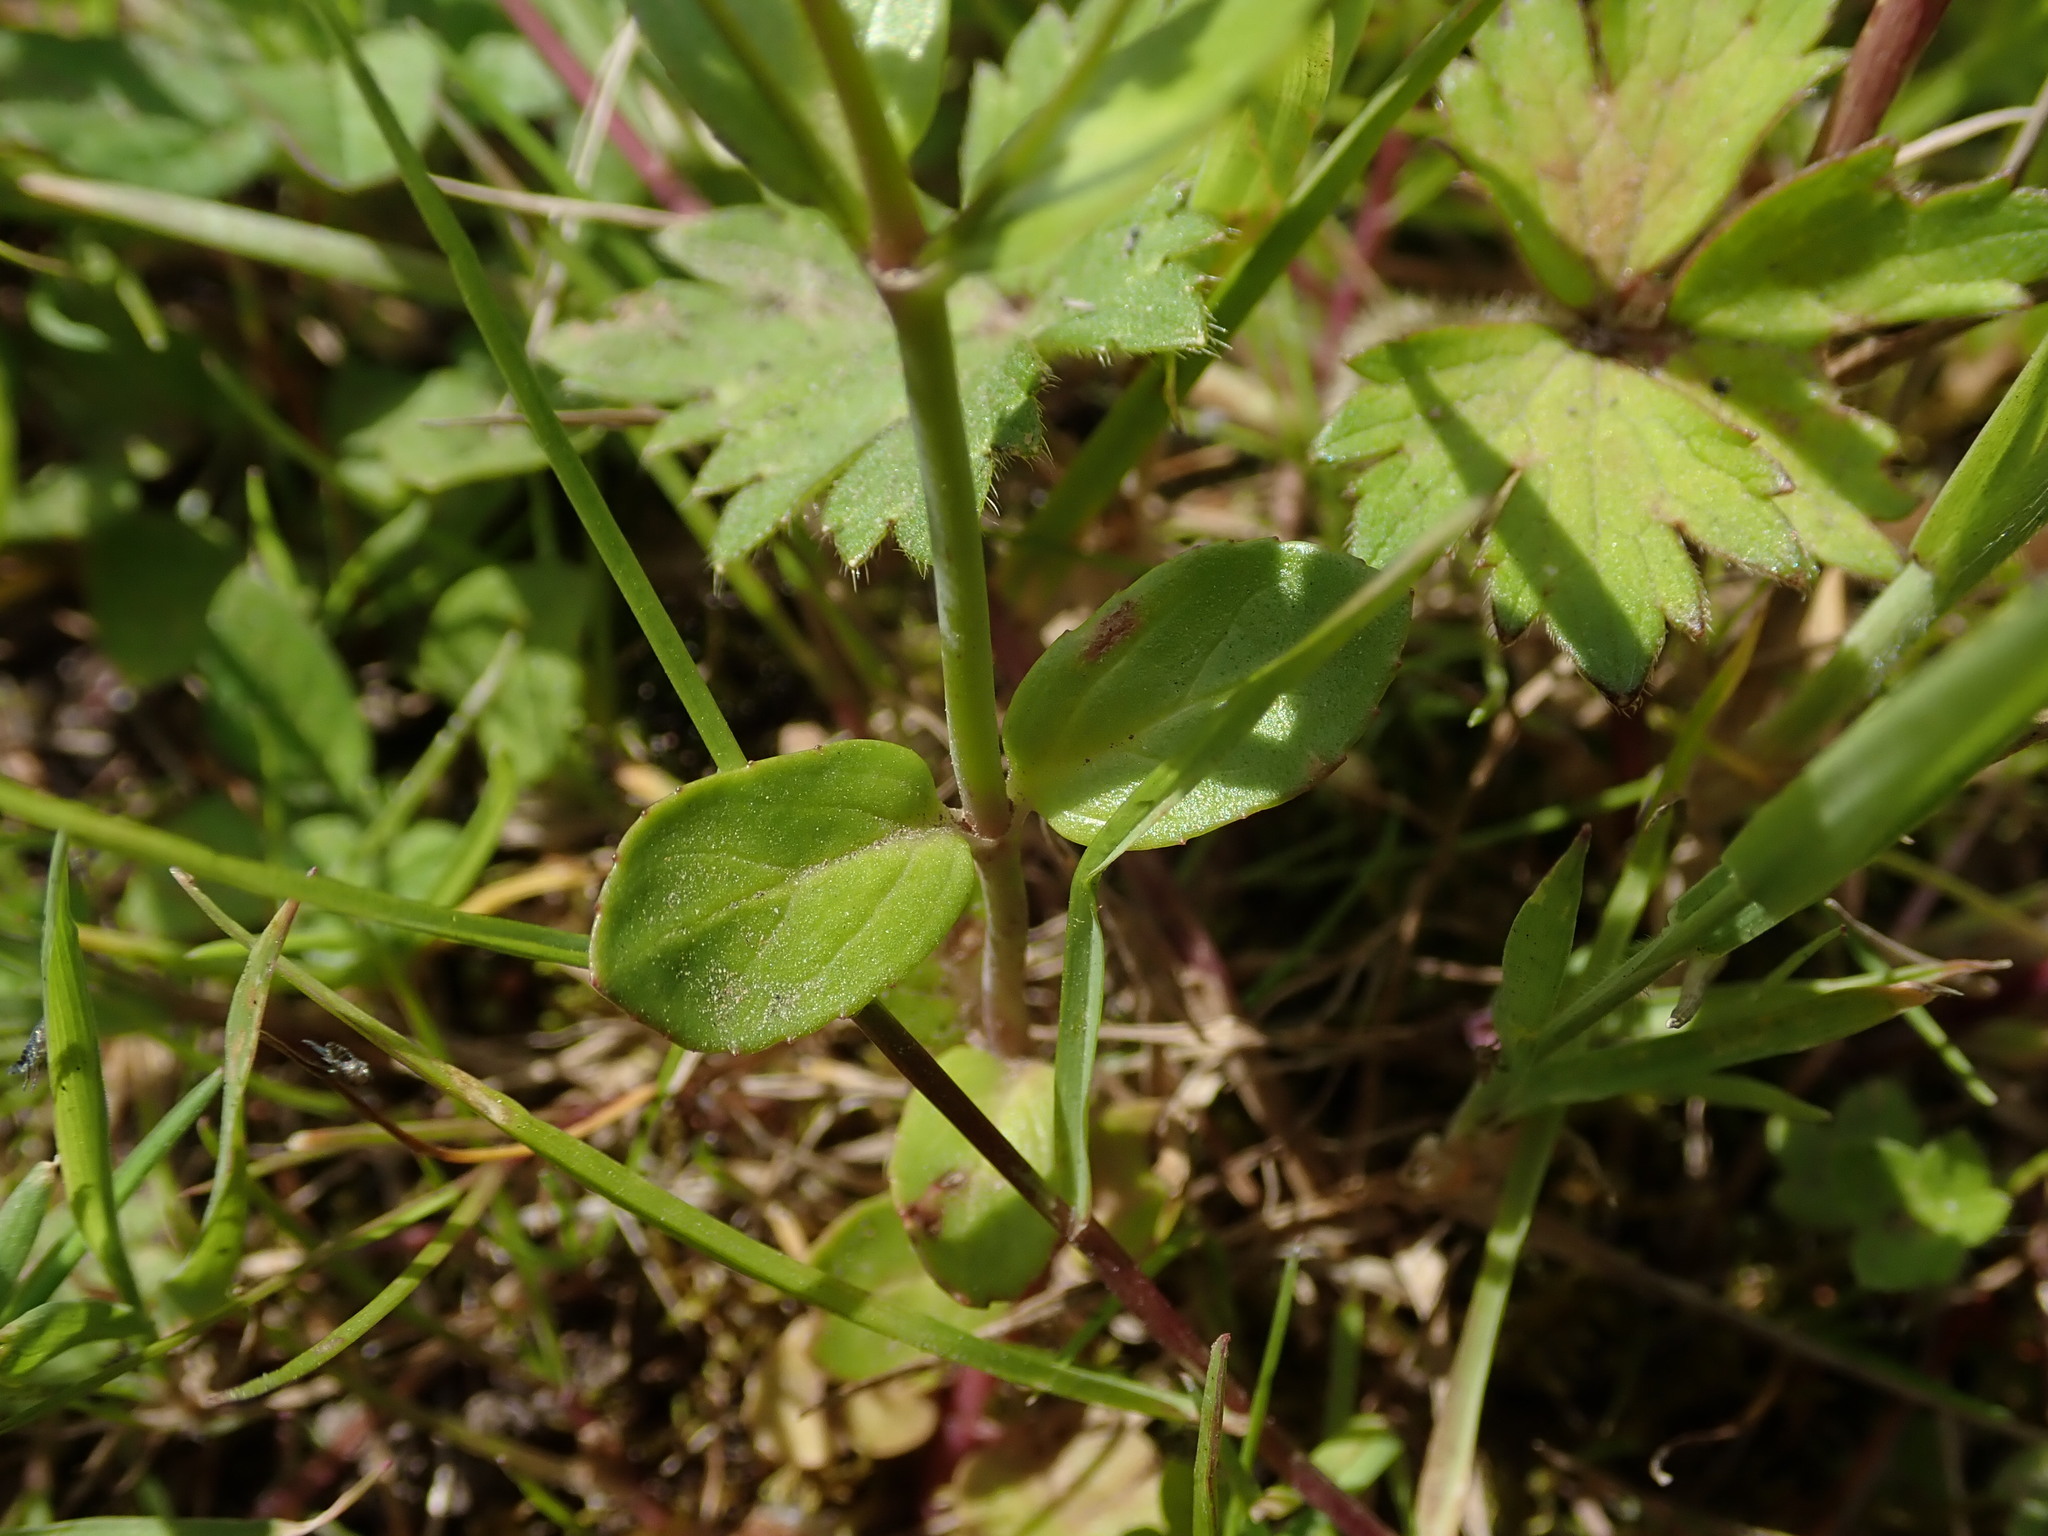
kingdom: Plantae
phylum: Tracheophyta
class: Magnoliopsida
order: Lamiales
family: Plantaginaceae
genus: Veronica
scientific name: Veronica beccabunga
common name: Brooklime
